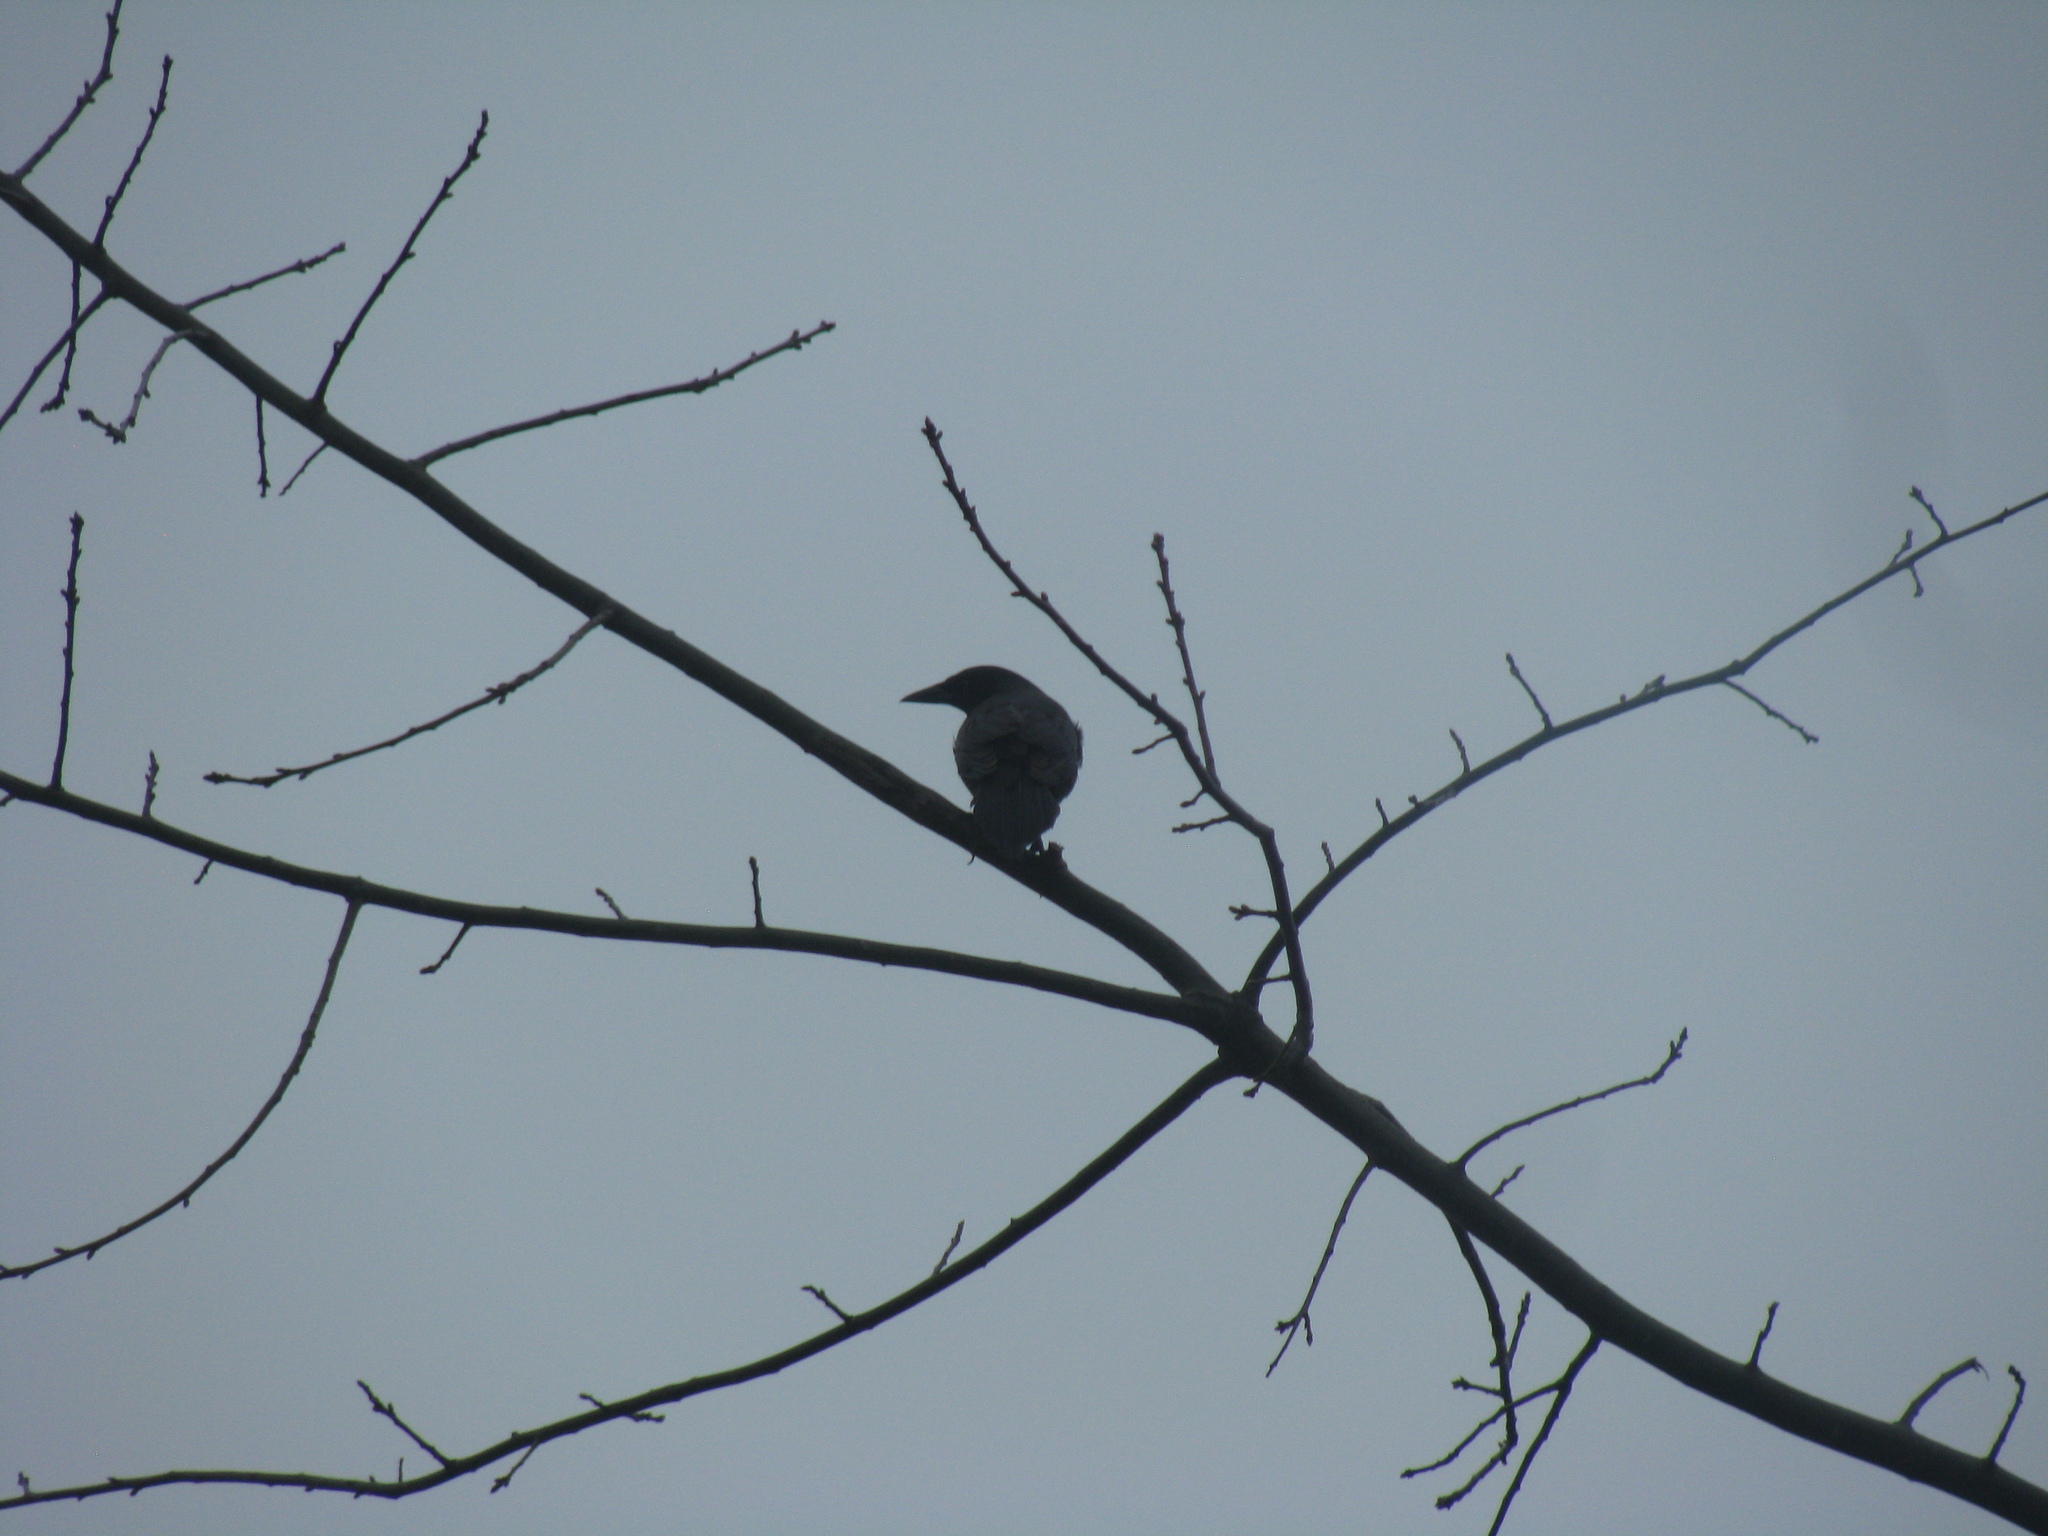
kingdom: Animalia
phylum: Chordata
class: Aves
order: Passeriformes
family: Icteridae
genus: Quiscalus
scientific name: Quiscalus quiscula
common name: Common grackle
